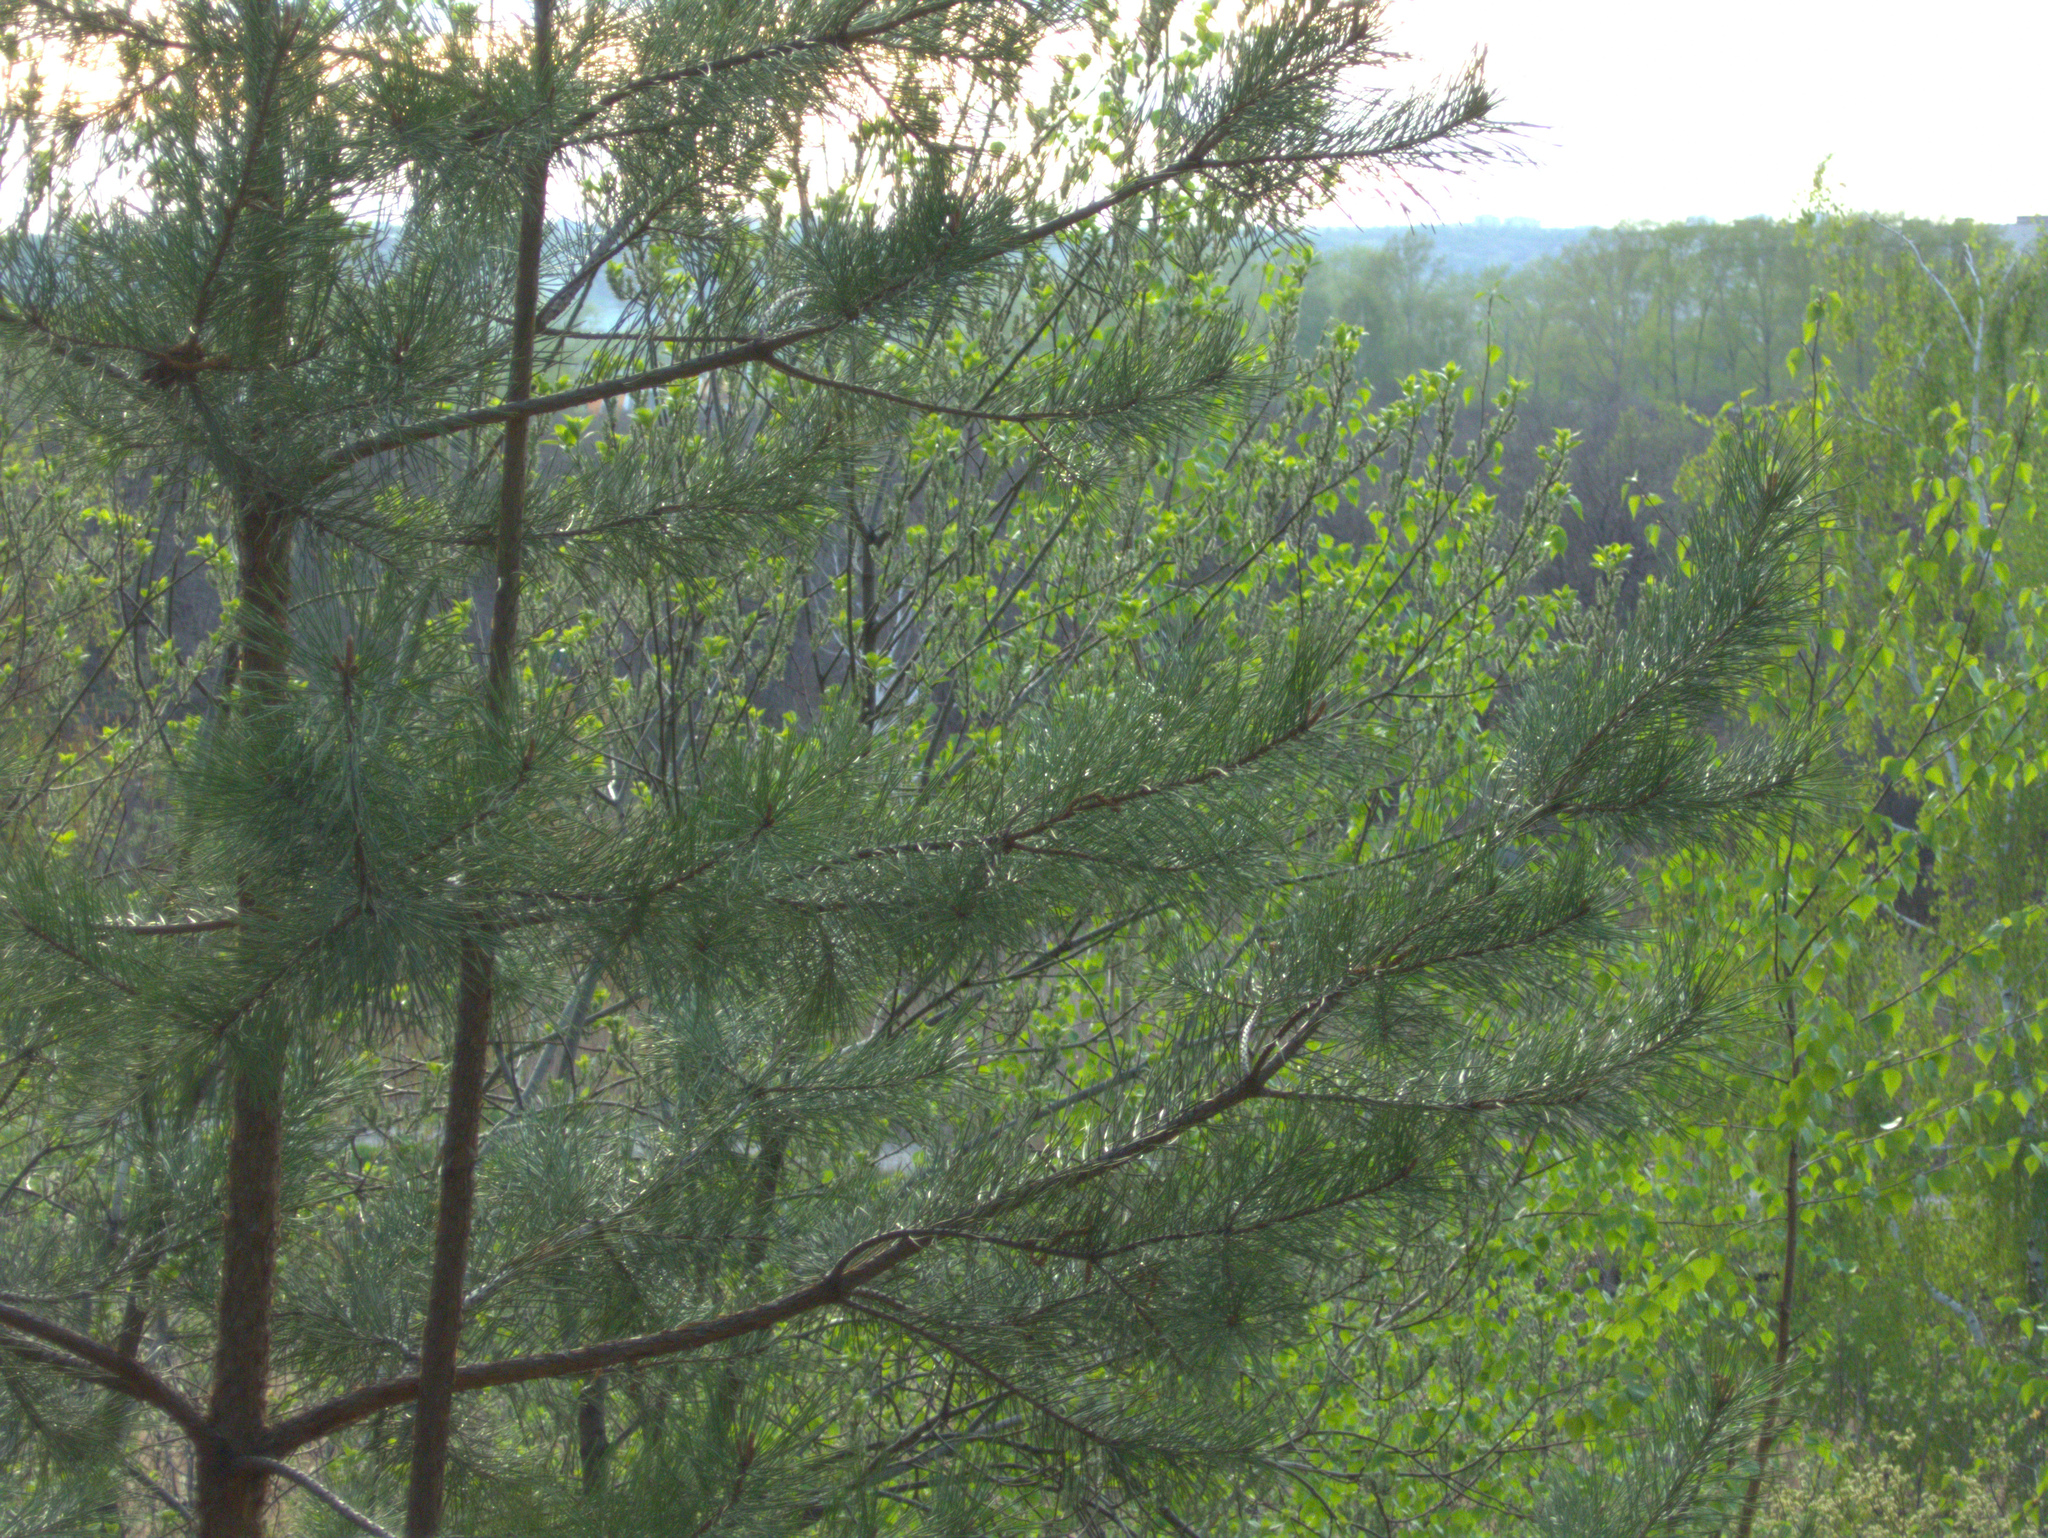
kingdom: Plantae
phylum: Tracheophyta
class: Pinopsida
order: Pinales
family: Pinaceae
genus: Pinus
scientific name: Pinus sylvestris
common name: Scots pine
